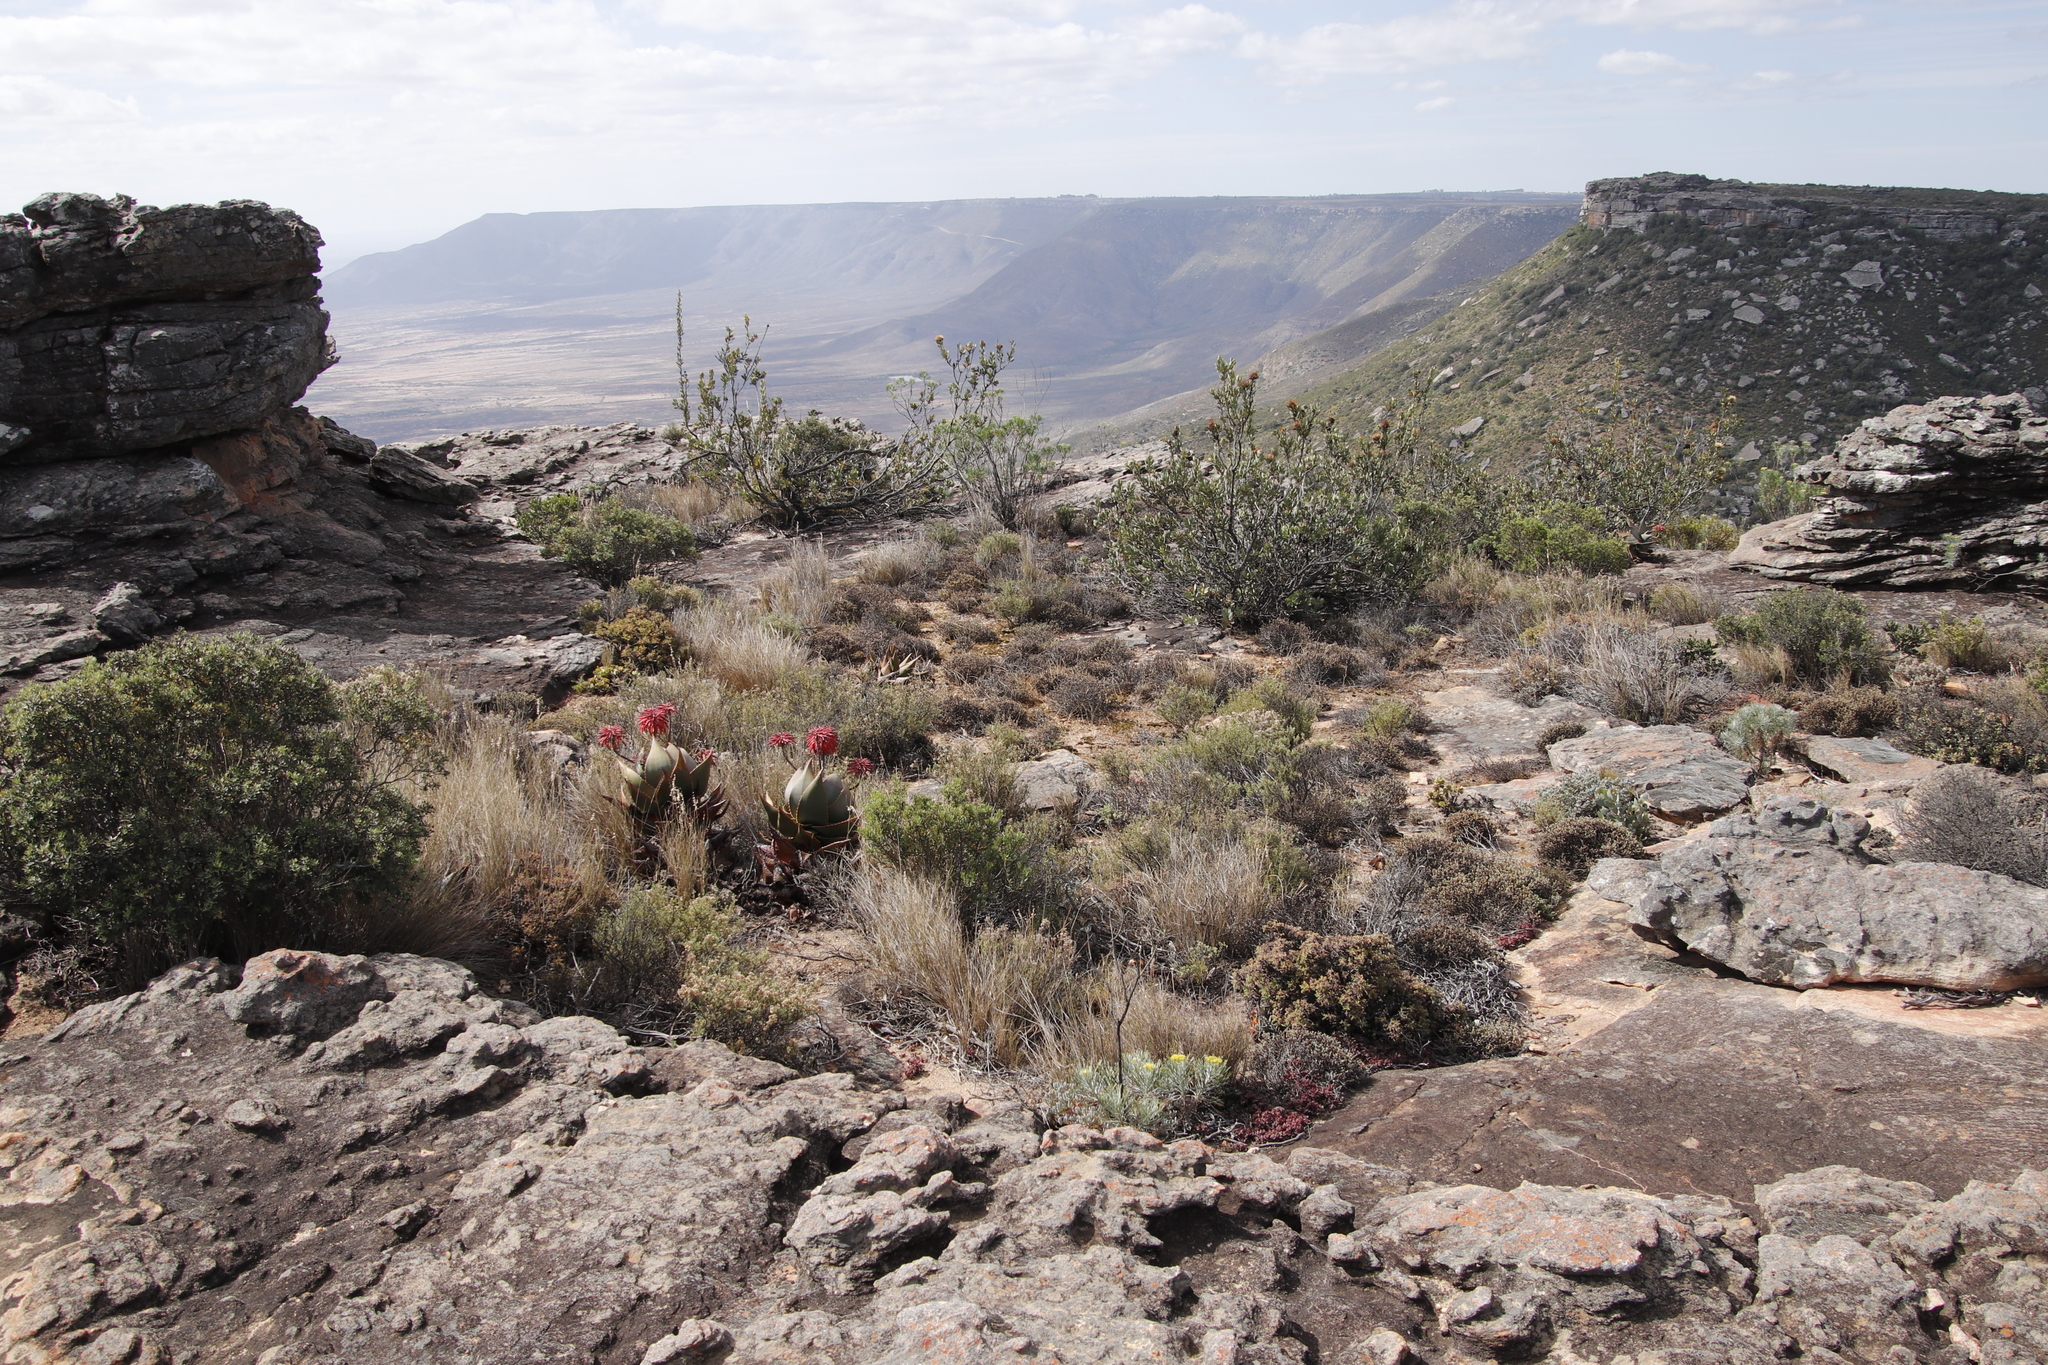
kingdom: Plantae
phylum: Tracheophyta
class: Liliopsida
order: Asparagales
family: Asphodelaceae
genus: Aloe
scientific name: Aloe perfoliata
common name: Mitra aloe
